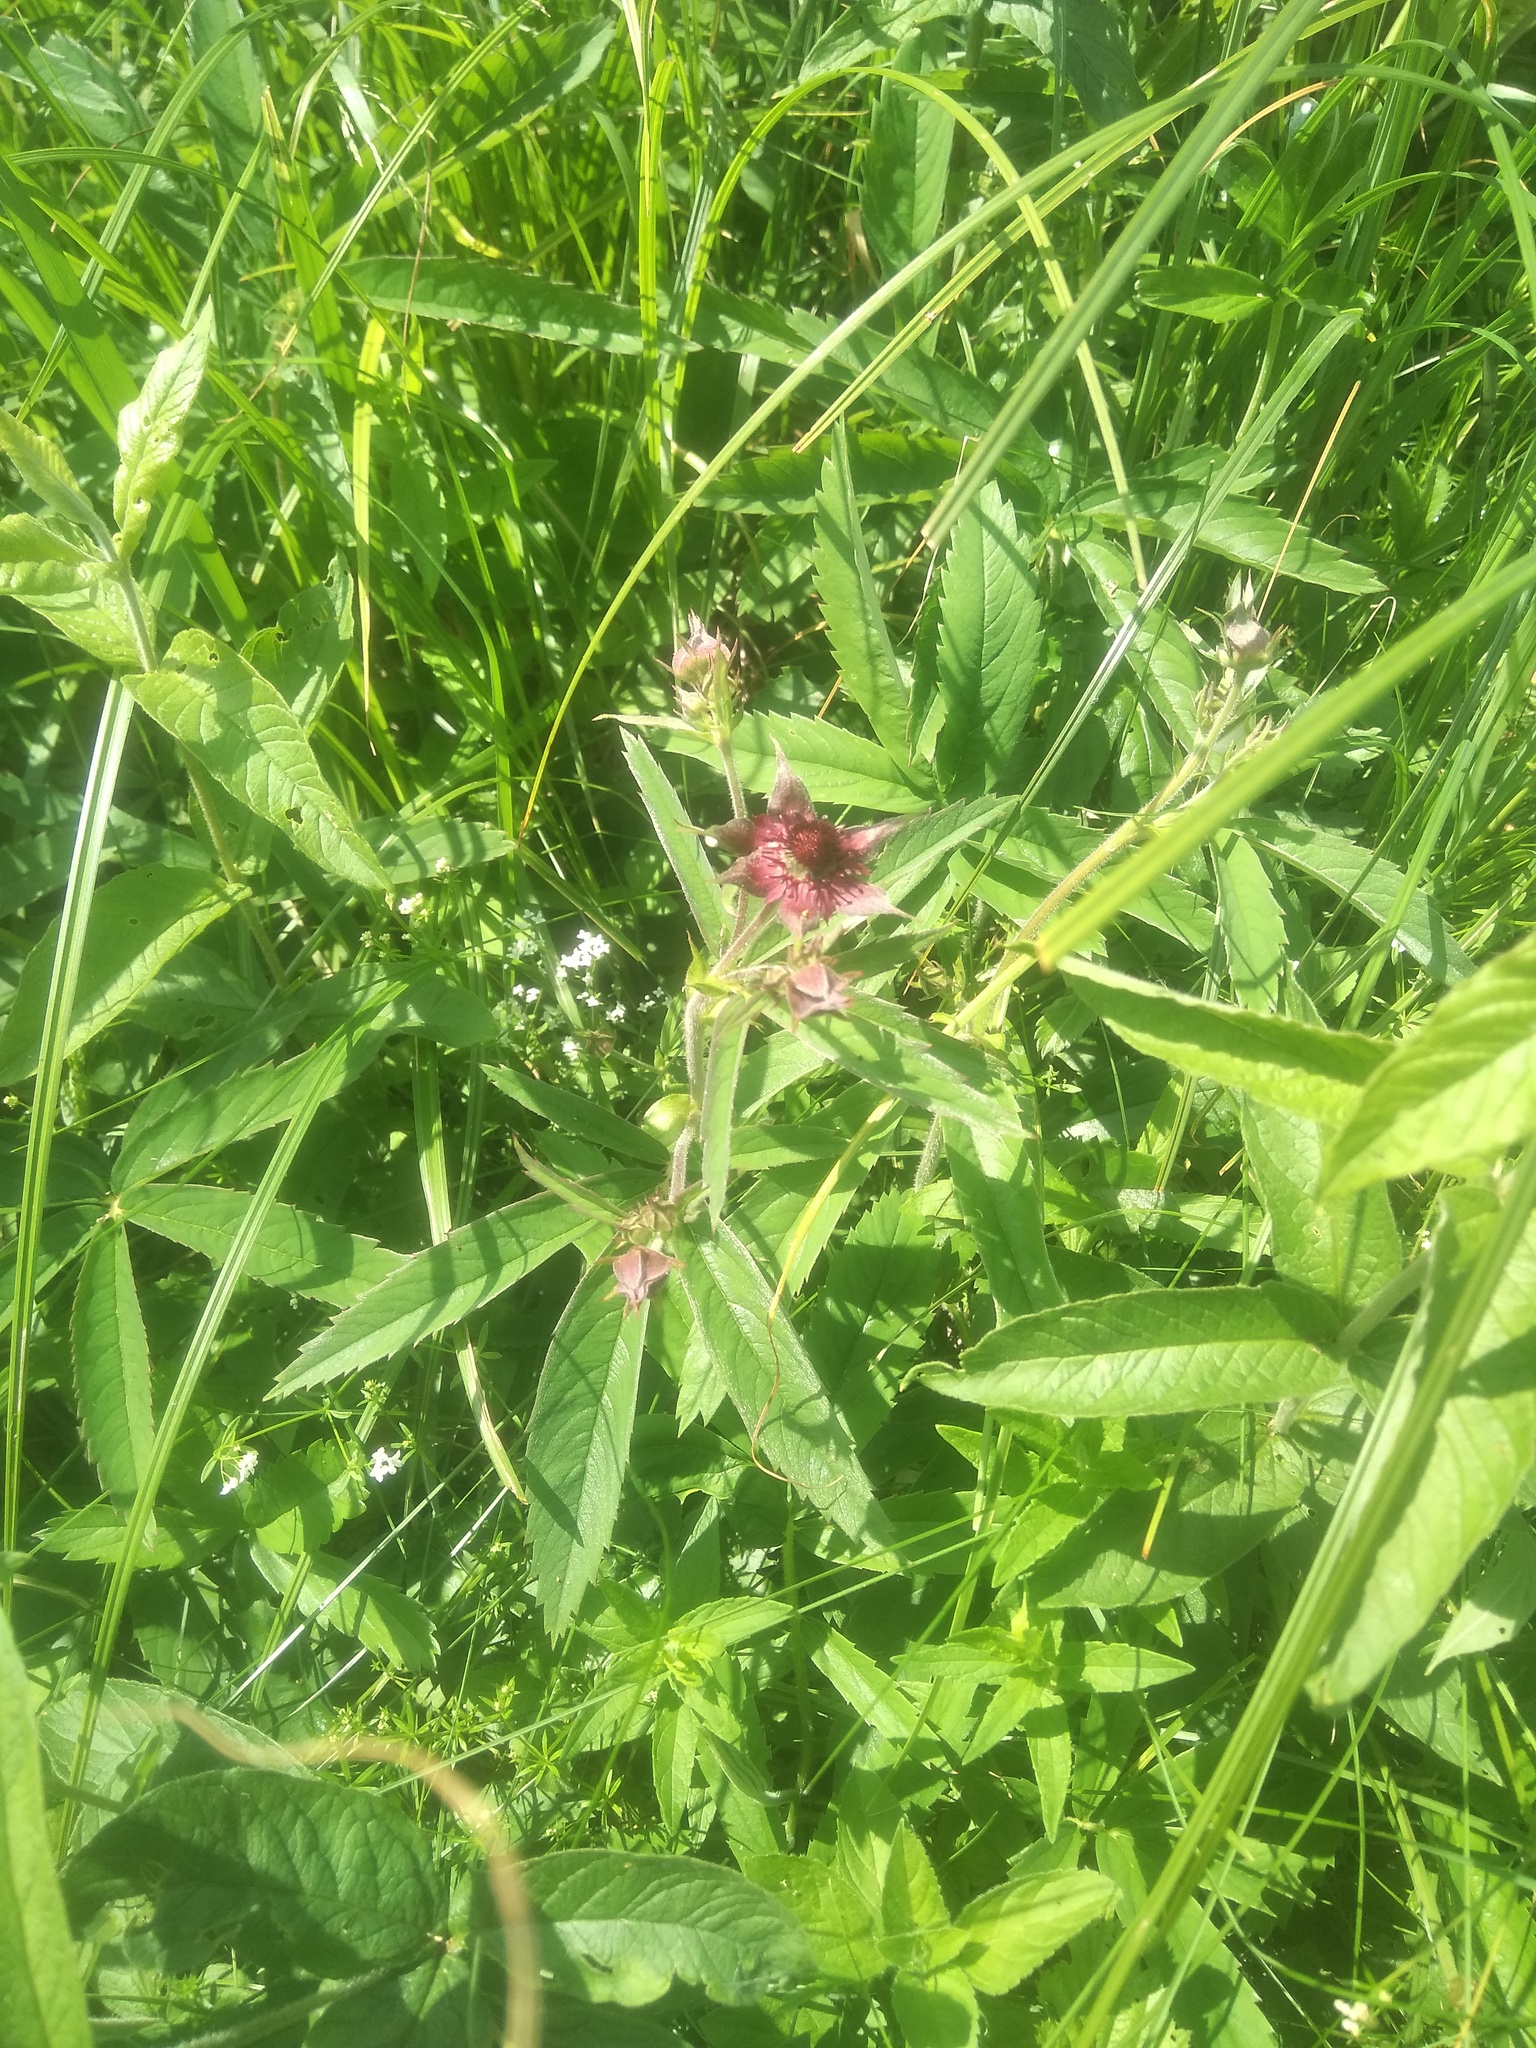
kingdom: Plantae
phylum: Tracheophyta
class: Magnoliopsida
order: Rosales
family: Rosaceae
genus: Comarum
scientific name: Comarum palustre
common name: Marsh cinquefoil
